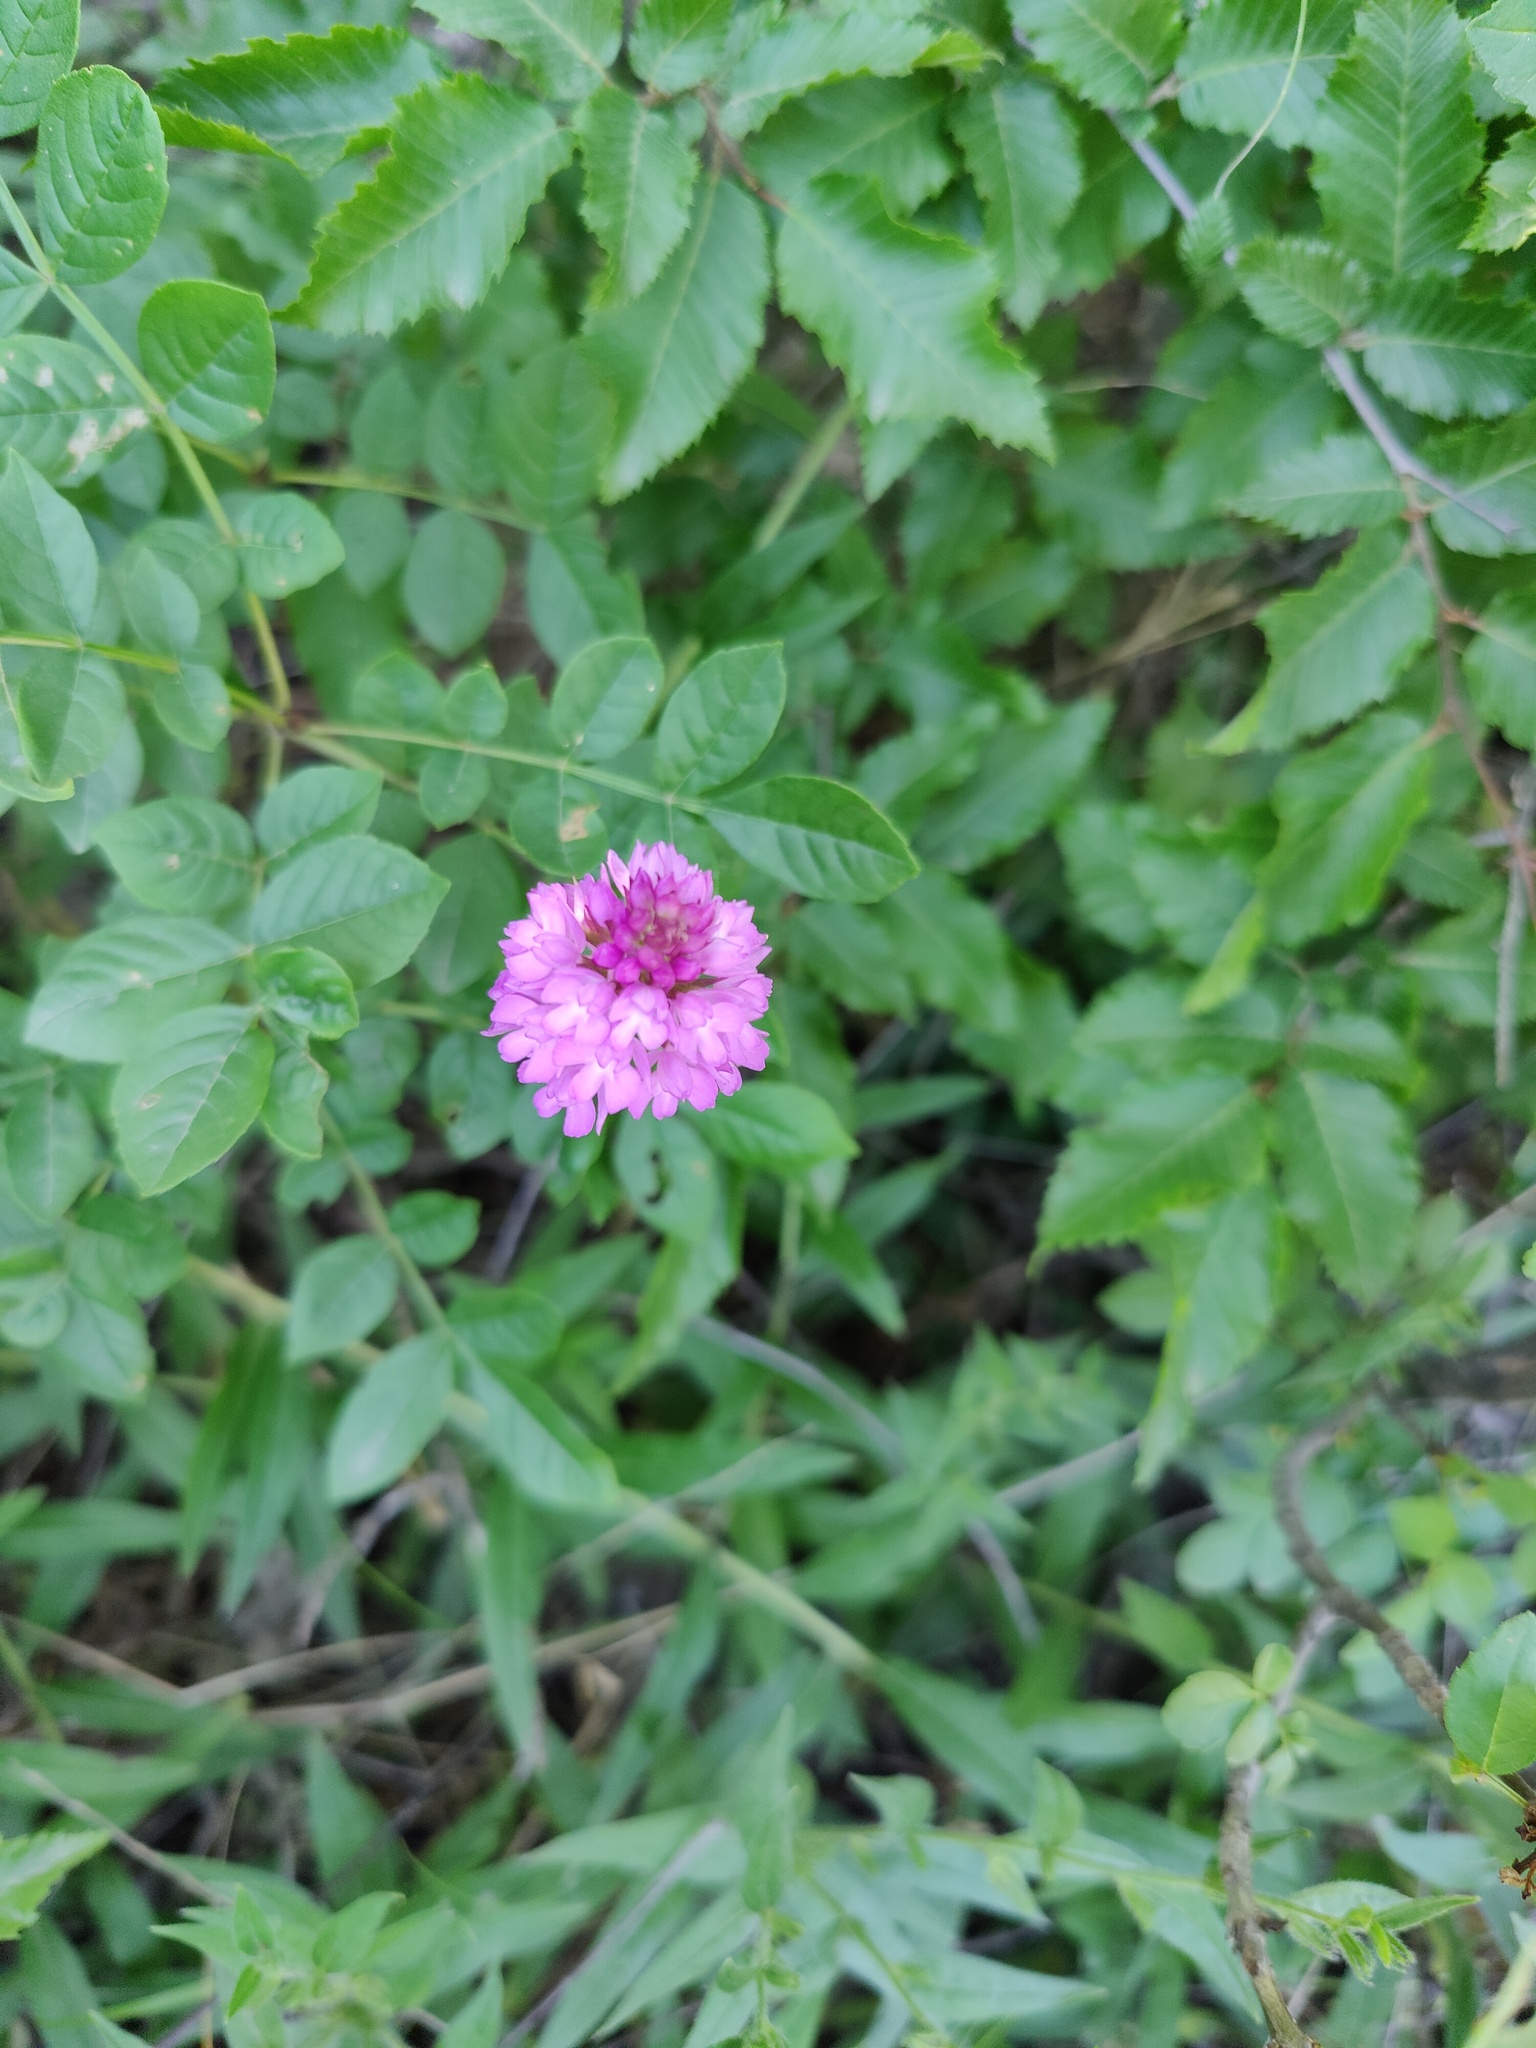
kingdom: Plantae
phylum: Tracheophyta
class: Liliopsida
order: Asparagales
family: Orchidaceae
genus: Anacamptis
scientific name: Anacamptis pyramidalis
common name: Pyramidal orchid
